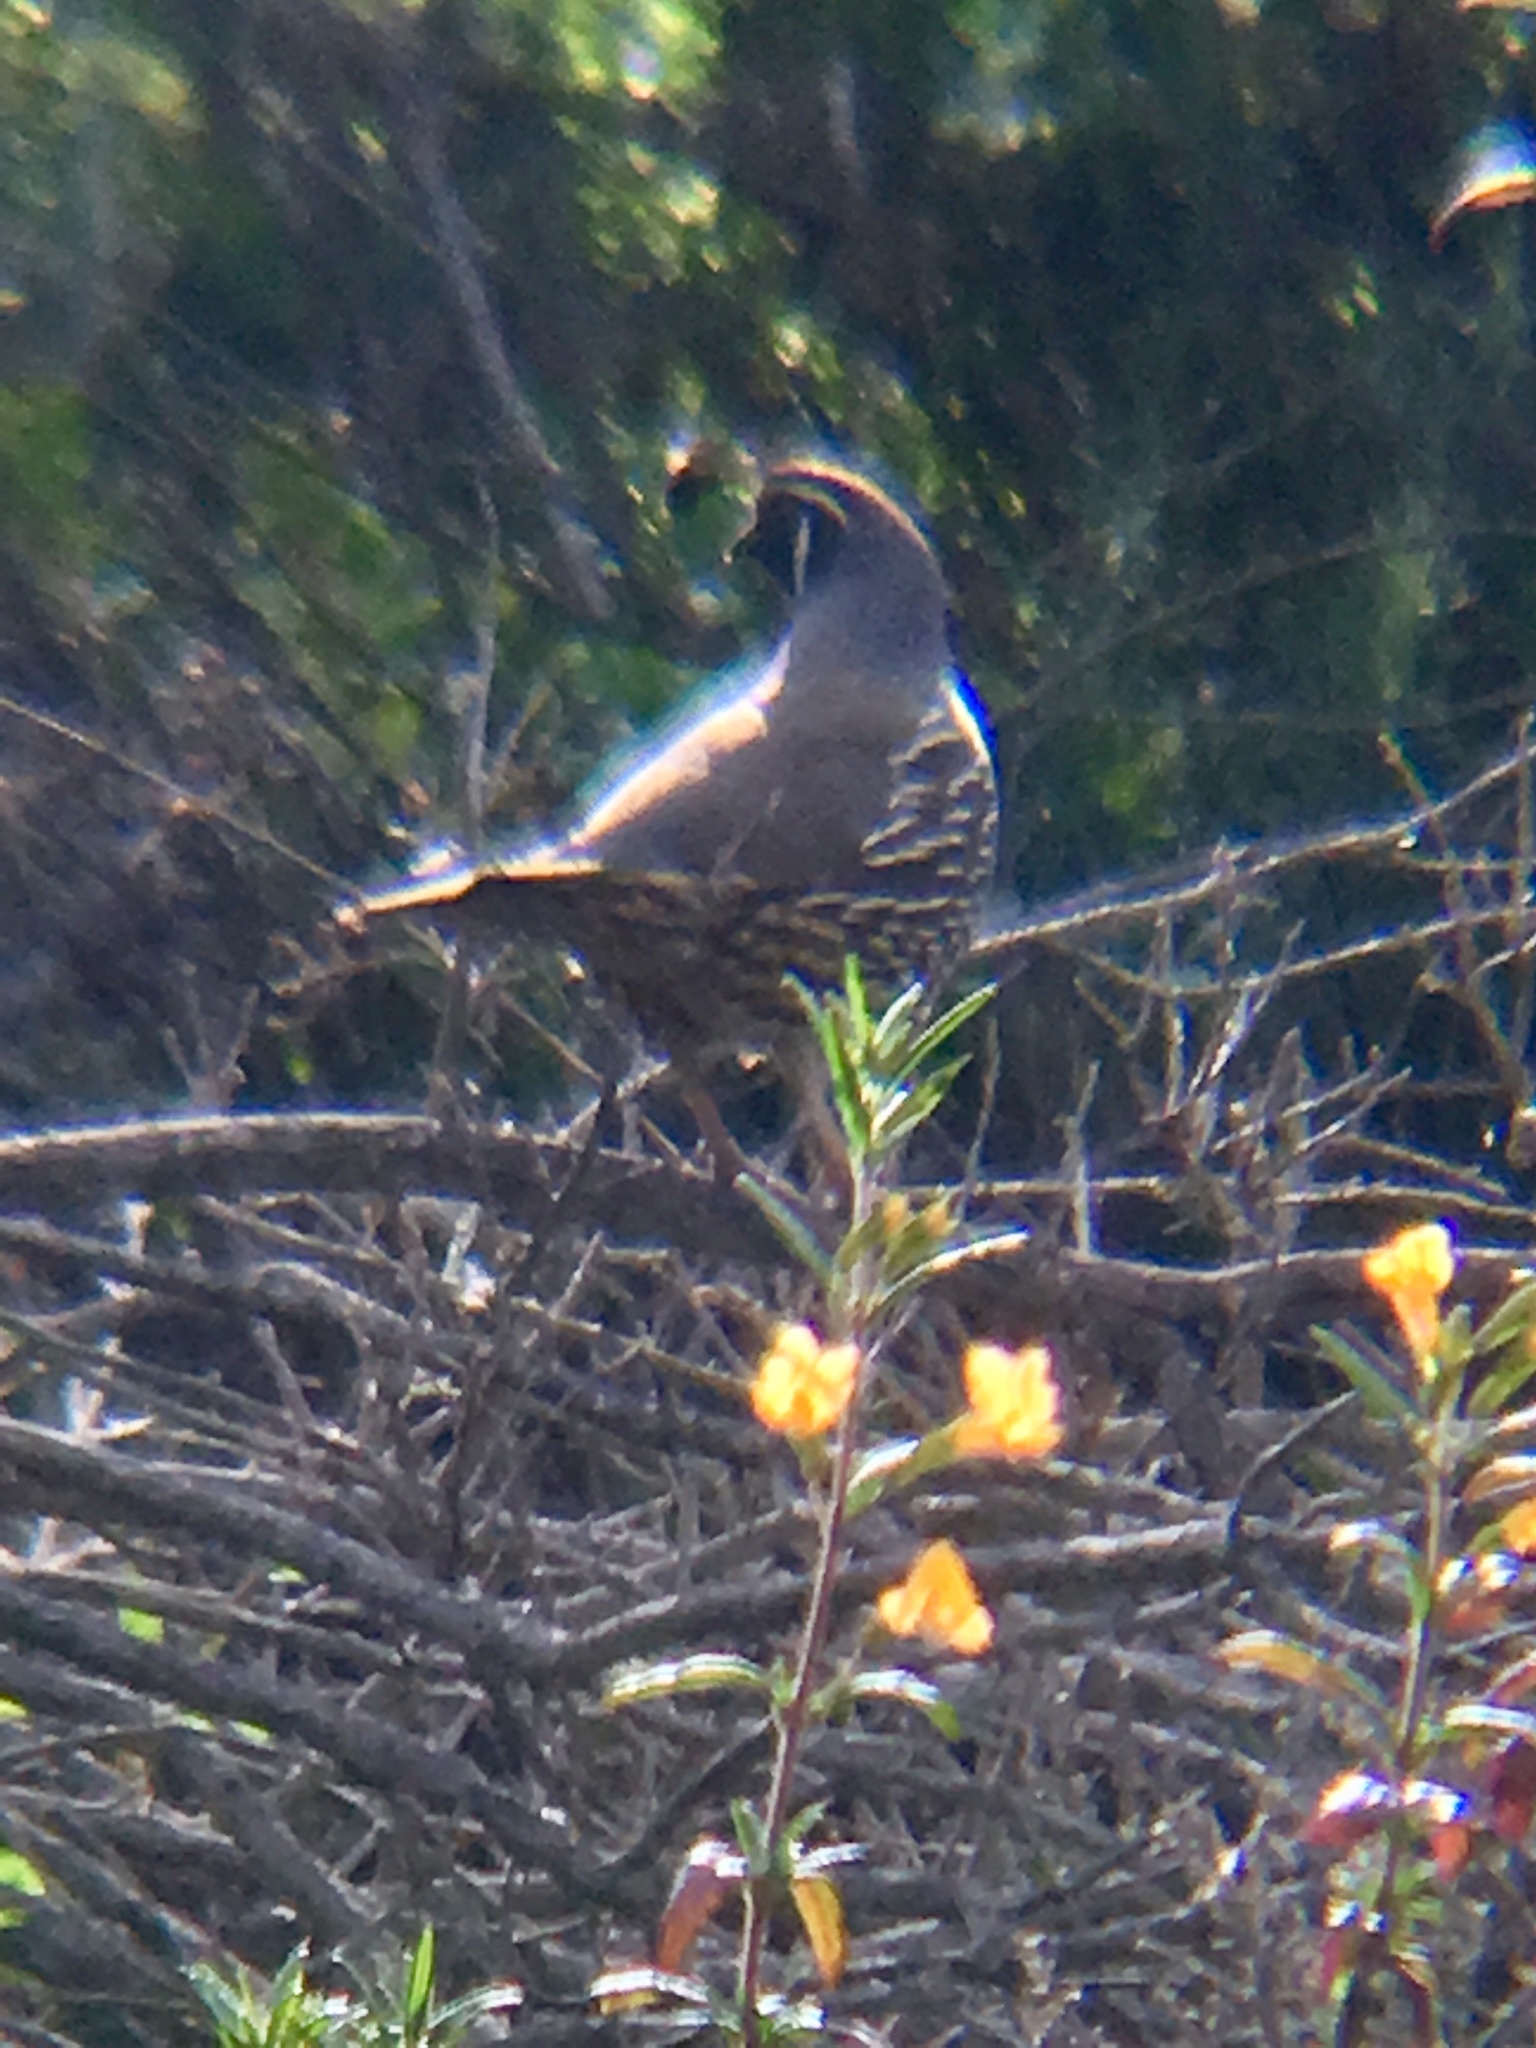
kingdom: Animalia
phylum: Chordata
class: Aves
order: Galliformes
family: Odontophoridae
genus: Callipepla
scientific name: Callipepla californica
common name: California quail
